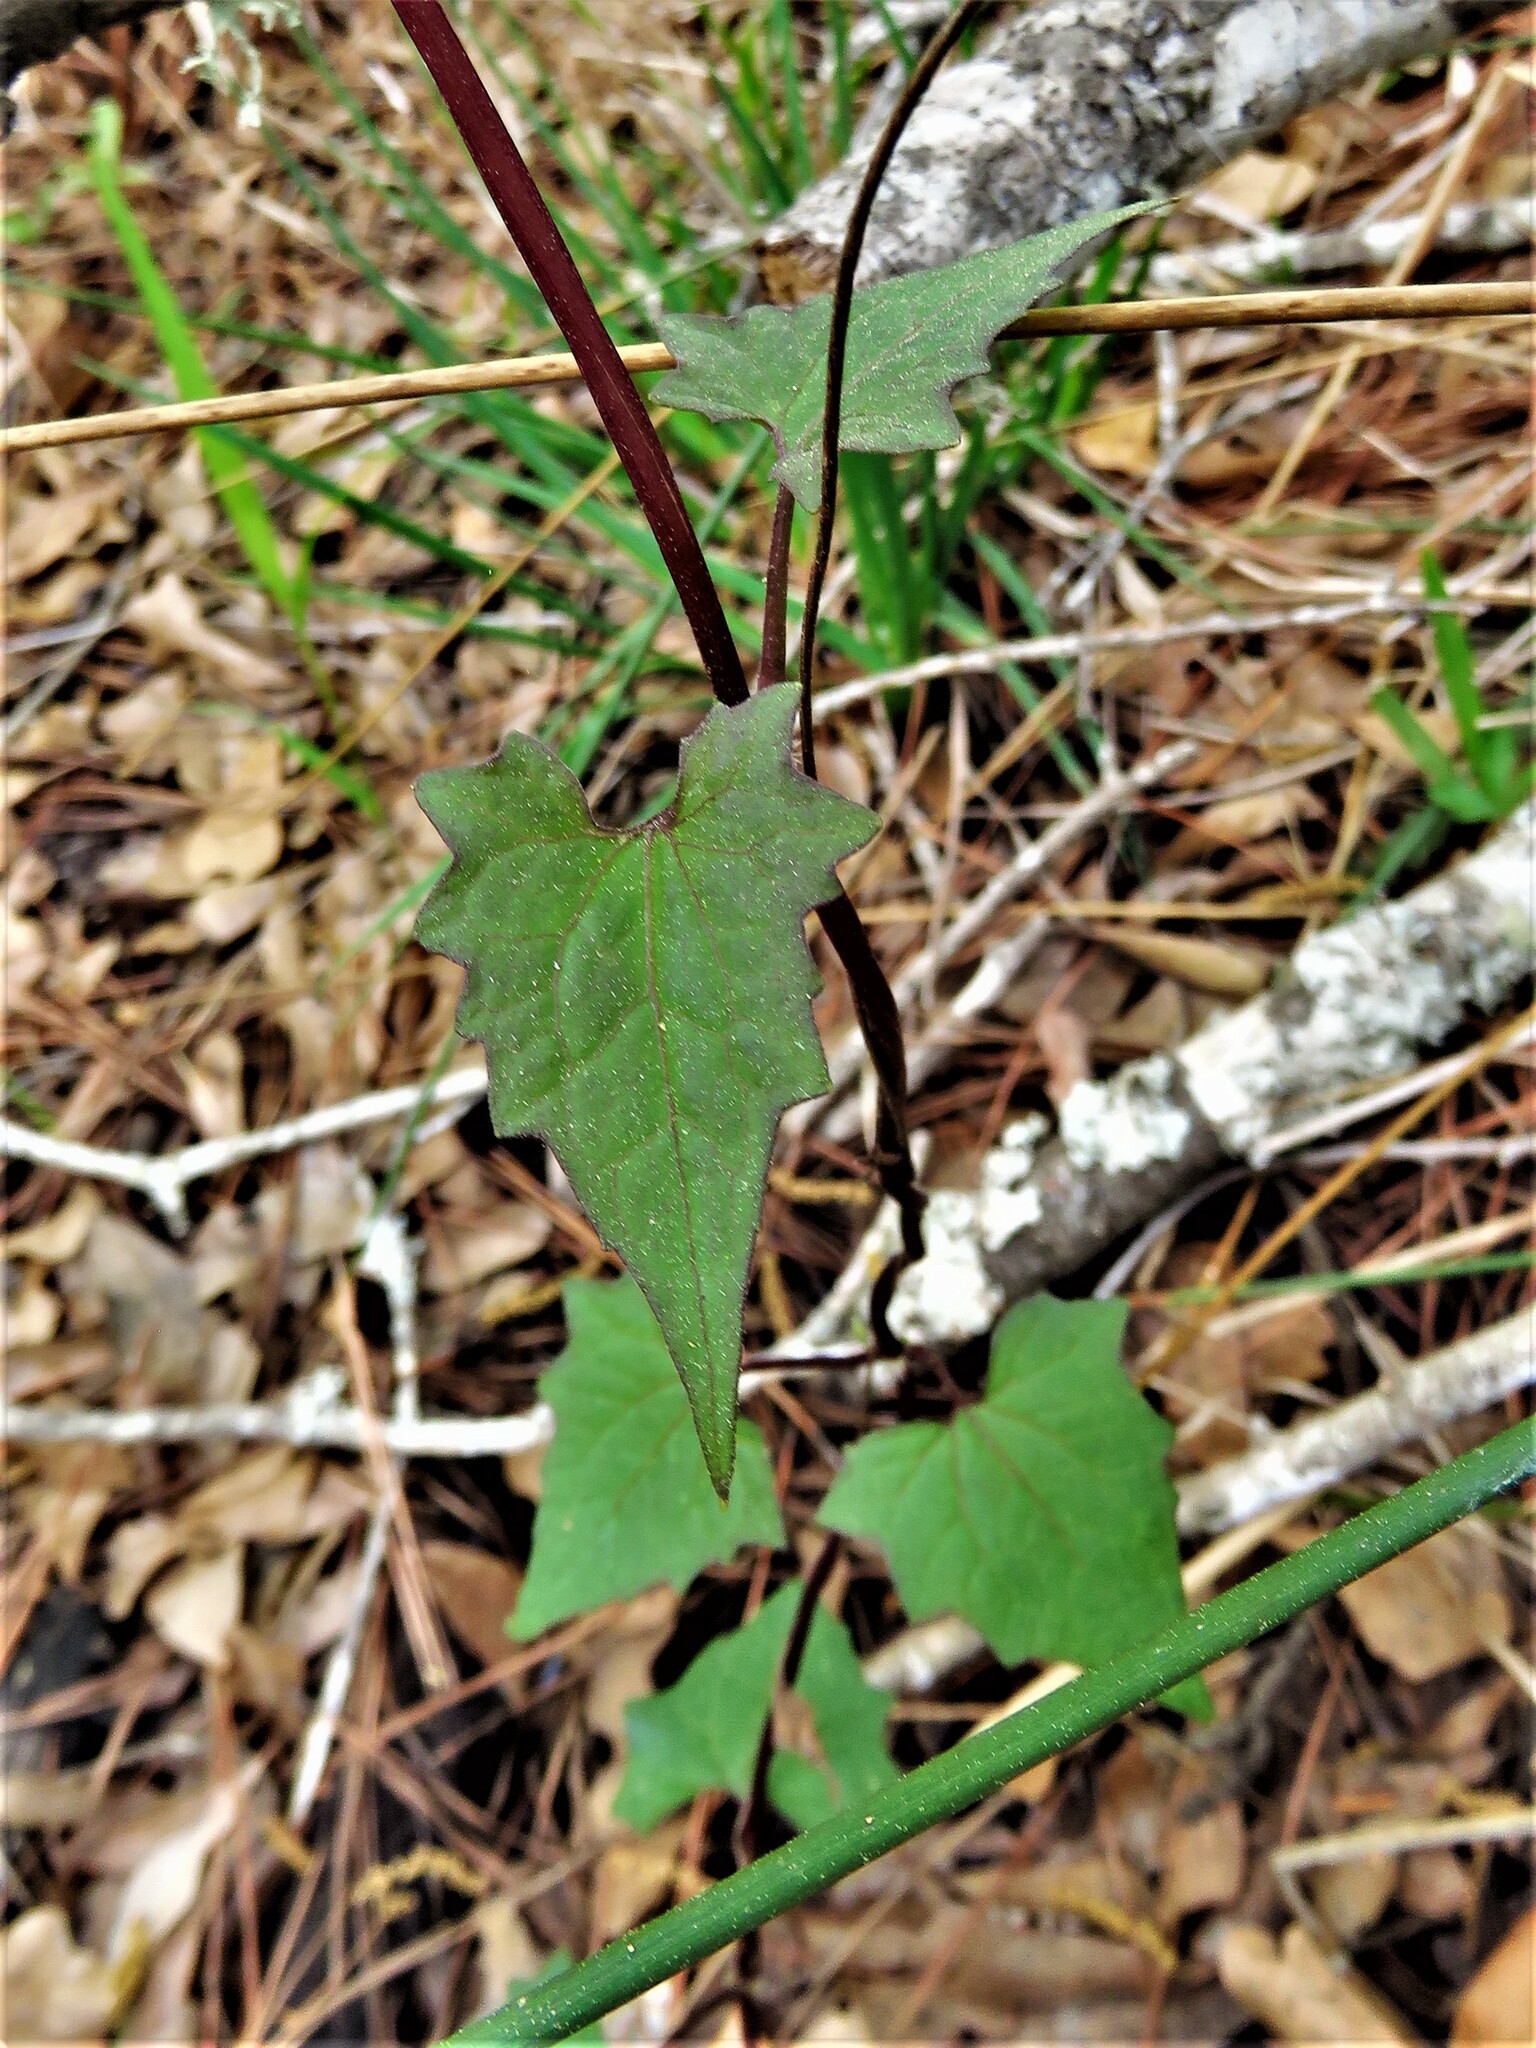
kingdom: Plantae
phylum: Tracheophyta
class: Magnoliopsida
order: Asterales
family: Asteraceae
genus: Mikania
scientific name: Mikania scandens
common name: Climbing hempvine
